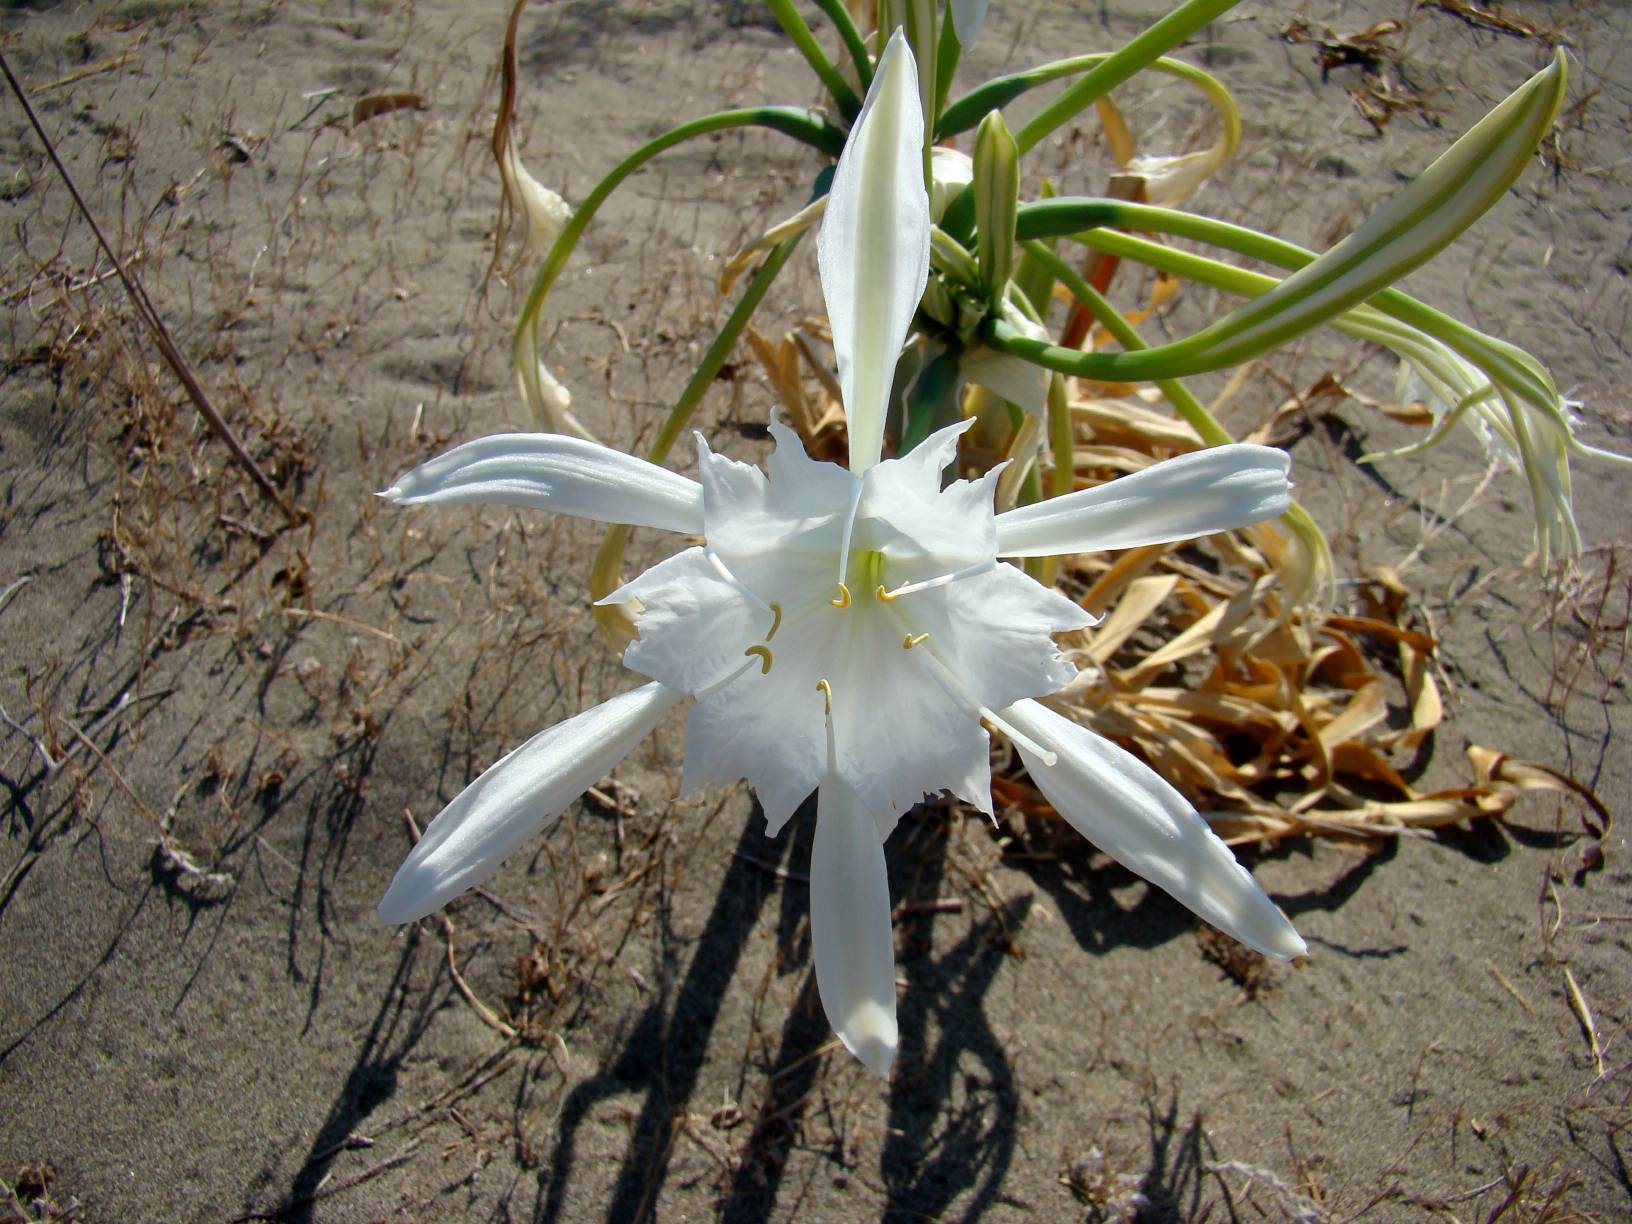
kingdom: Plantae
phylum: Tracheophyta
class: Liliopsida
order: Asparagales
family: Amaryllidaceae
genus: Pancratium
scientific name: Pancratium maritimum
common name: Sea-daffodil
